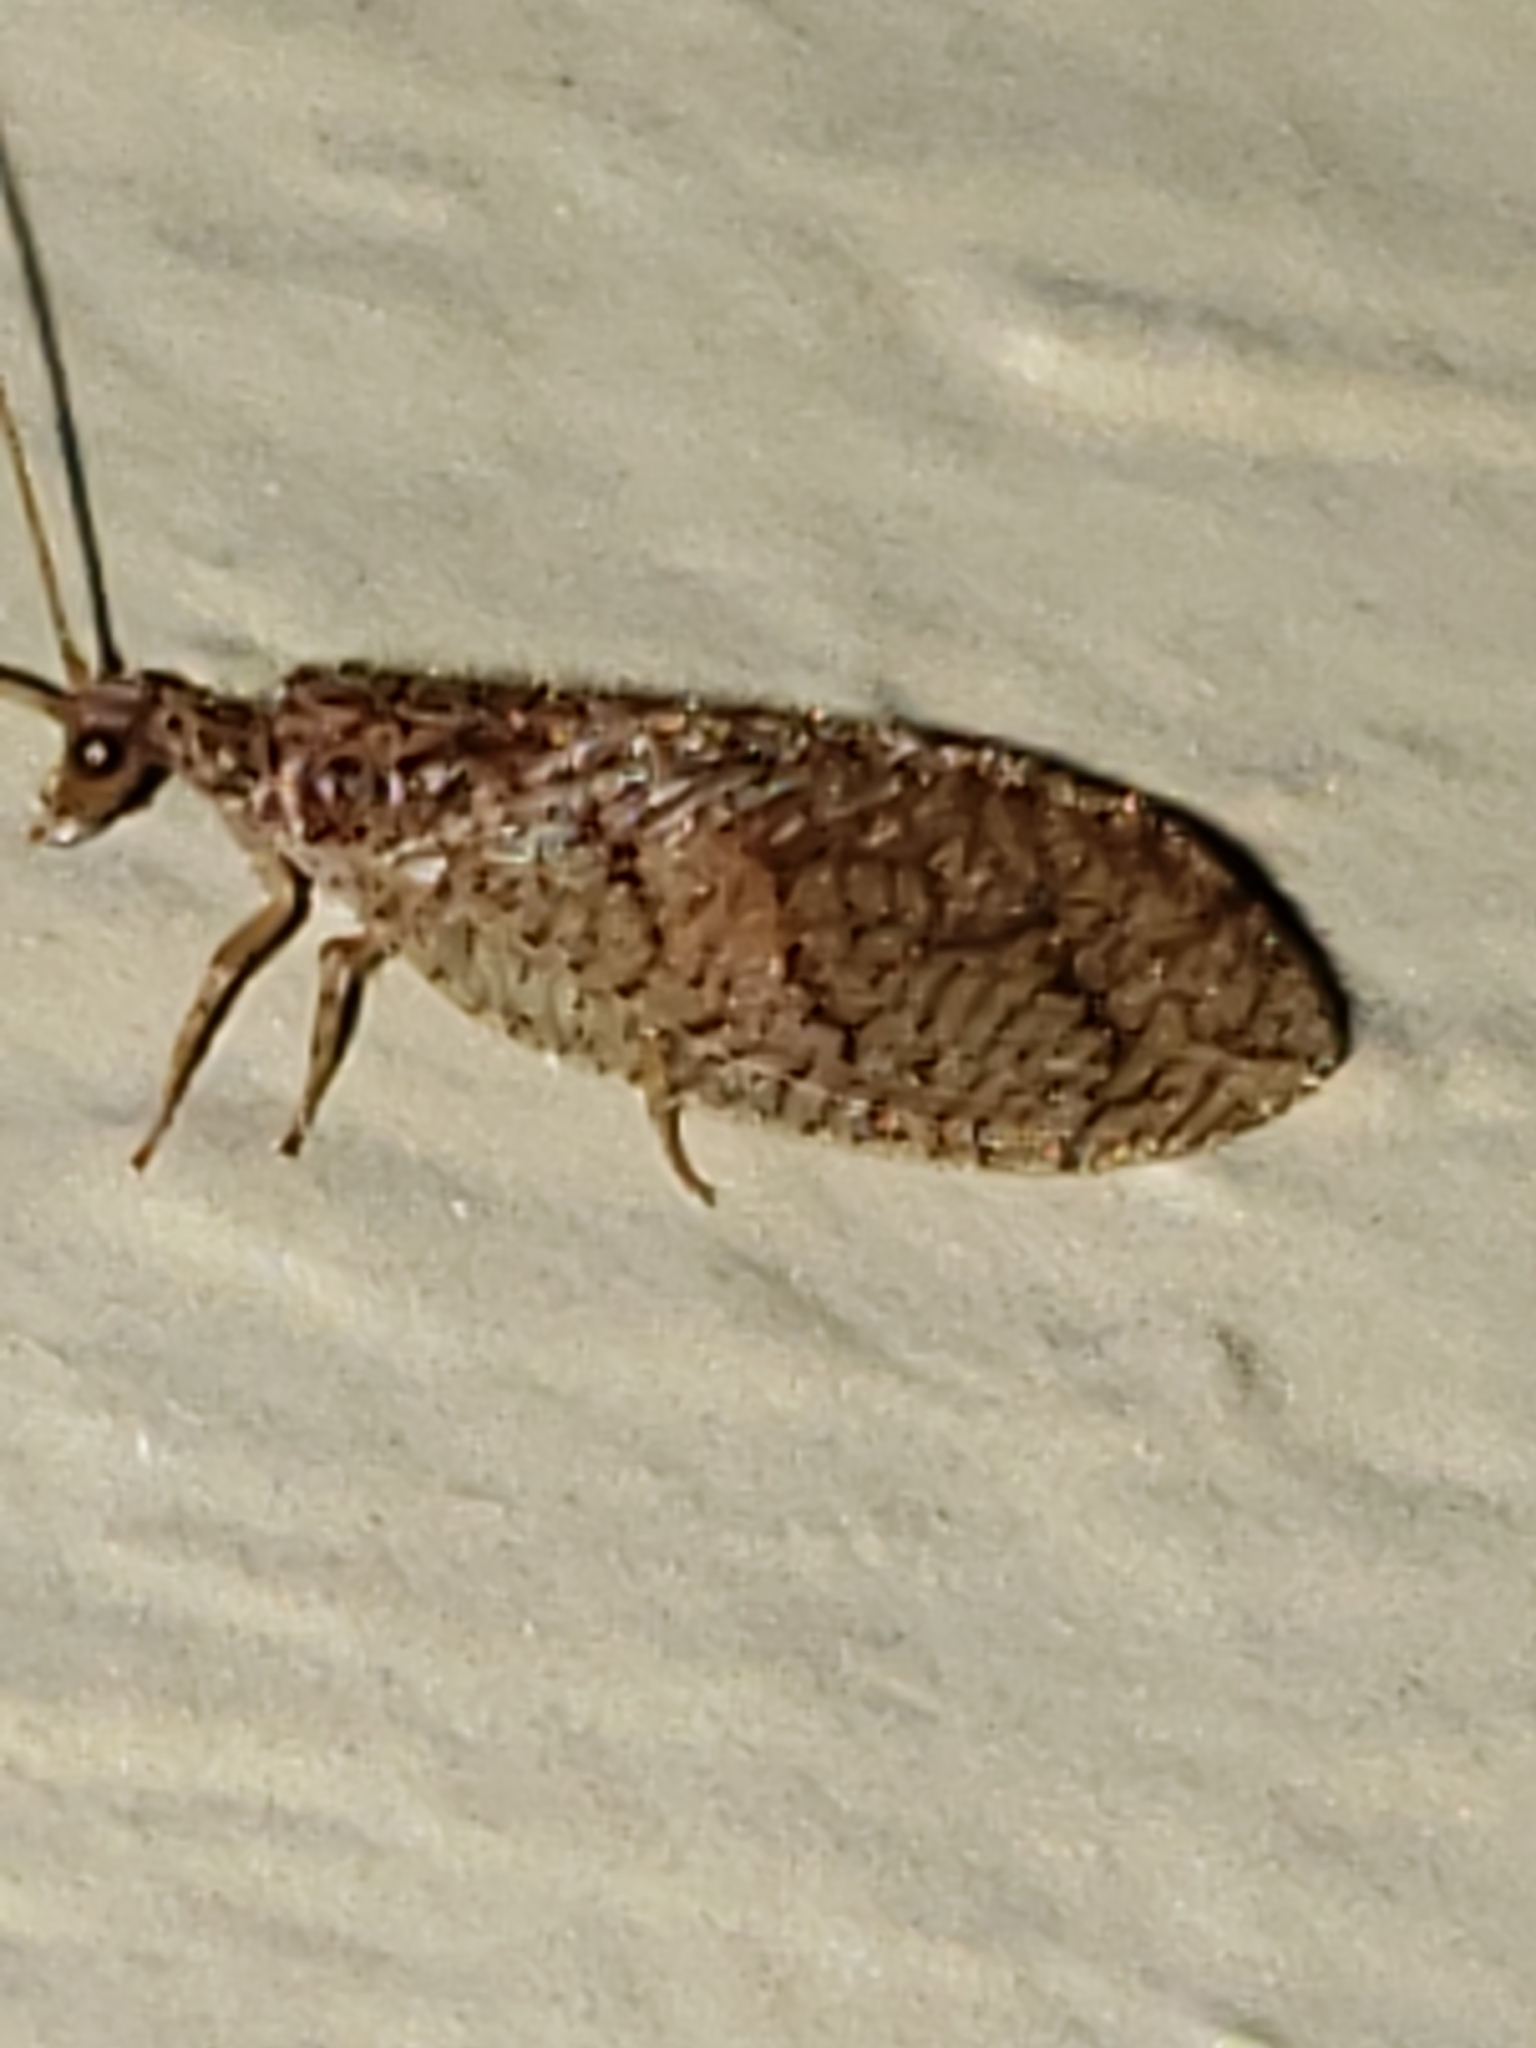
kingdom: Animalia
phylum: Arthropoda
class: Insecta
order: Neuroptera
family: Hemerobiidae
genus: Micromus
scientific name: Micromus posticus
